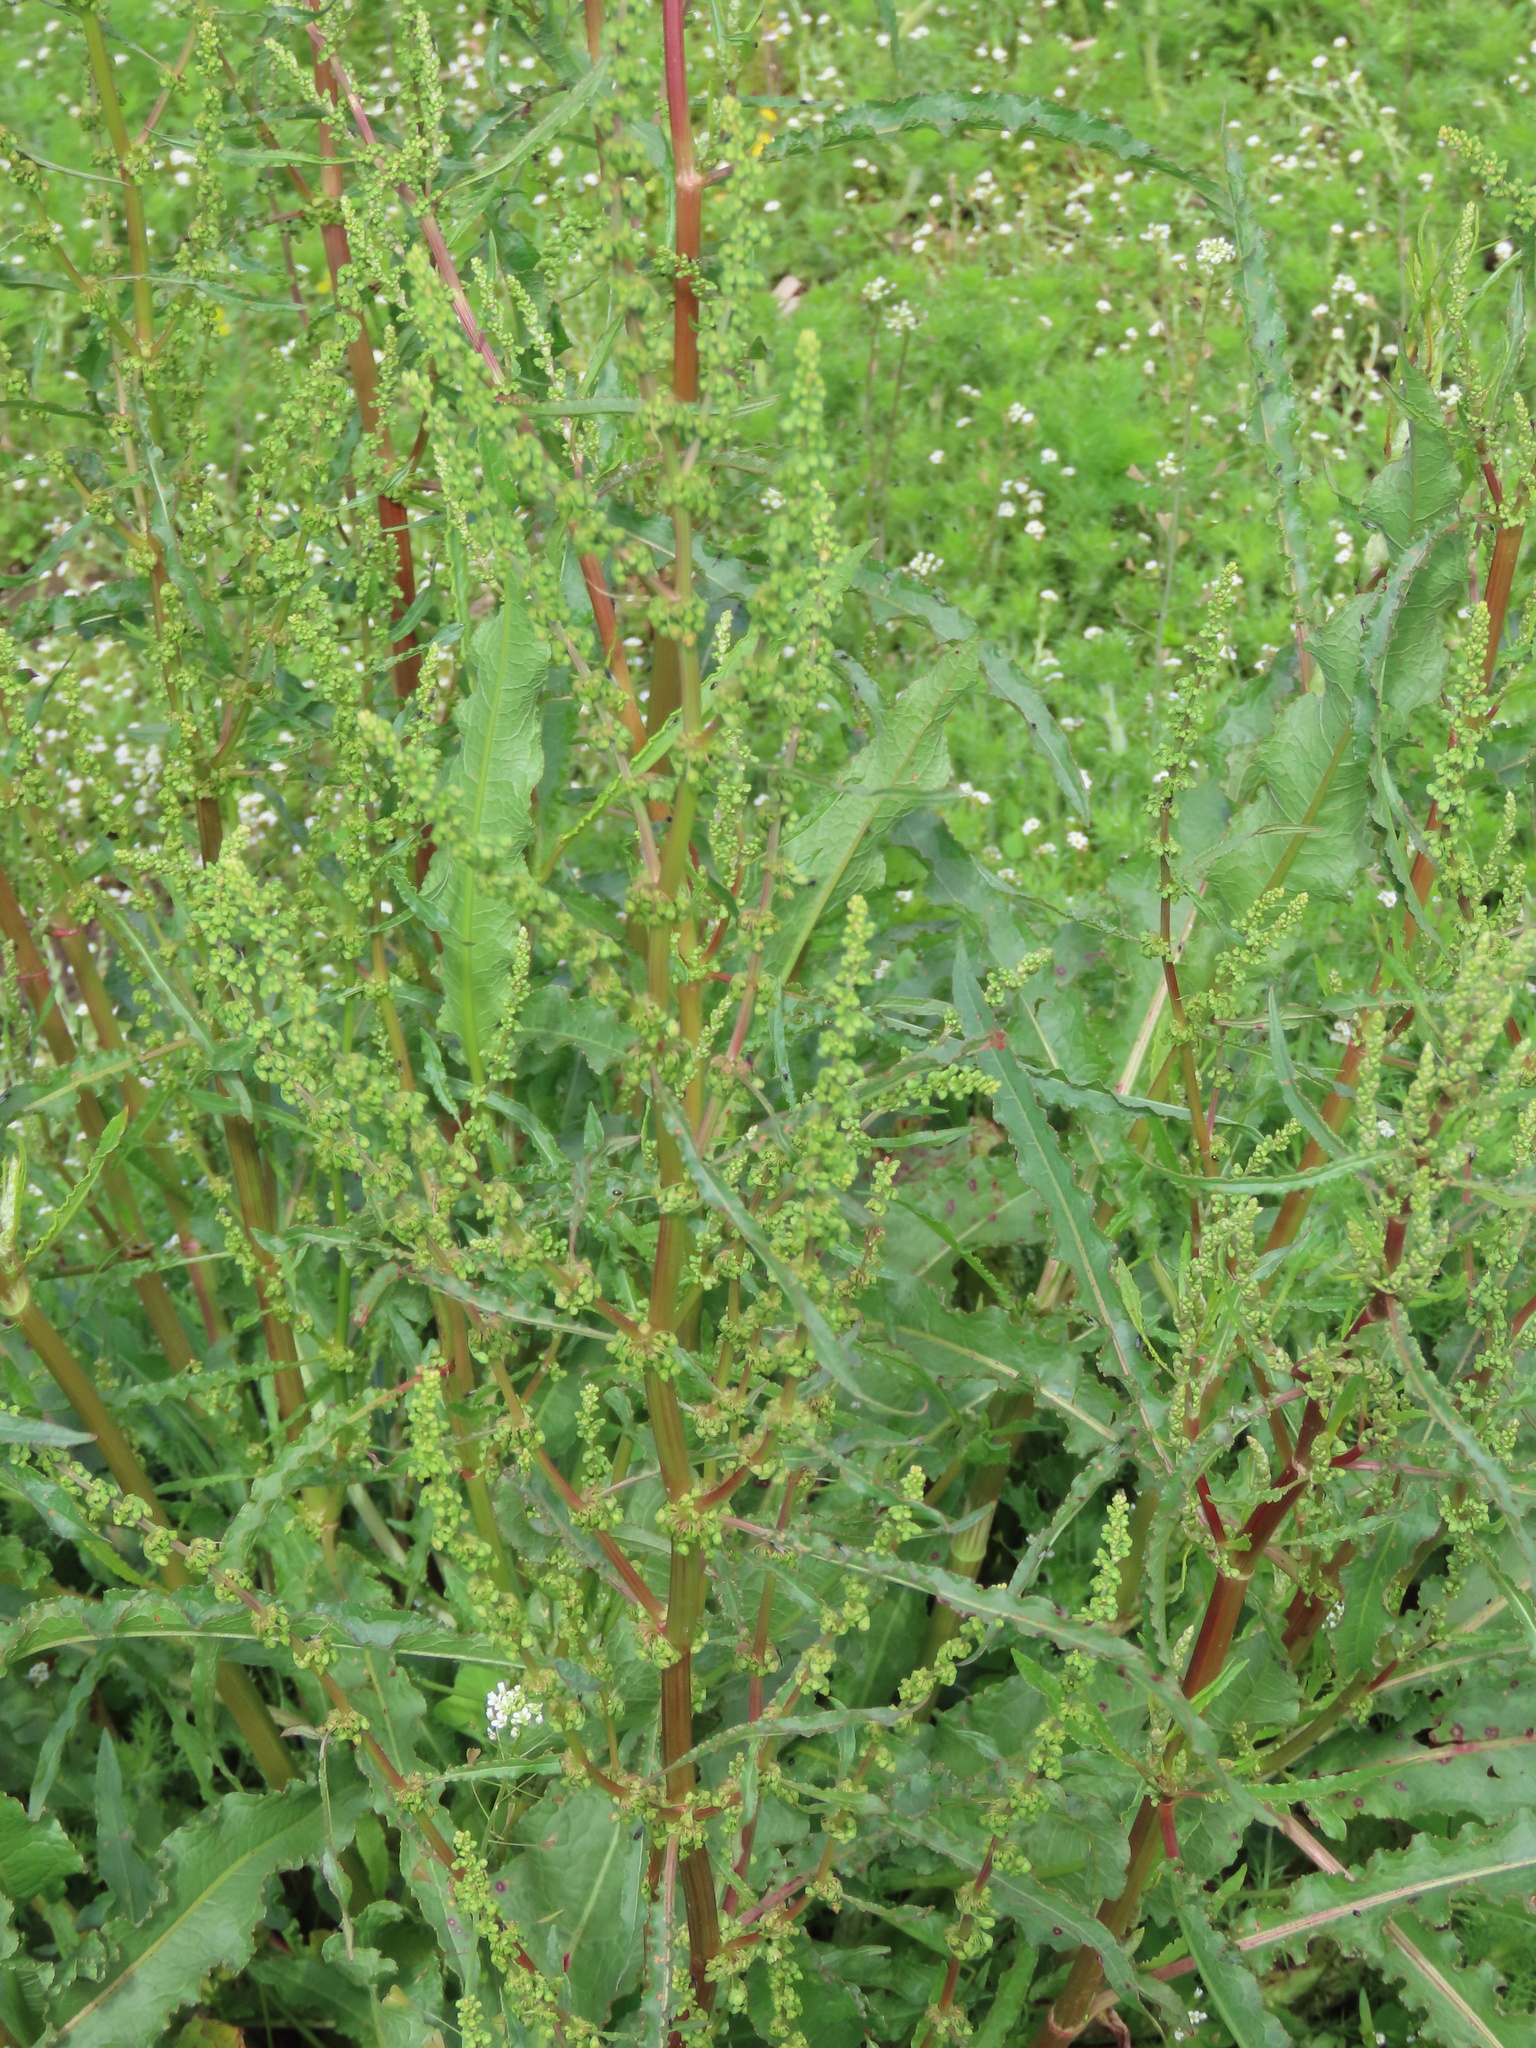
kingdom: Plantae
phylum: Tracheophyta
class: Magnoliopsida
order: Caryophyllales
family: Polygonaceae
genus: Rumex
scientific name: Rumex crispus
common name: Curled dock
